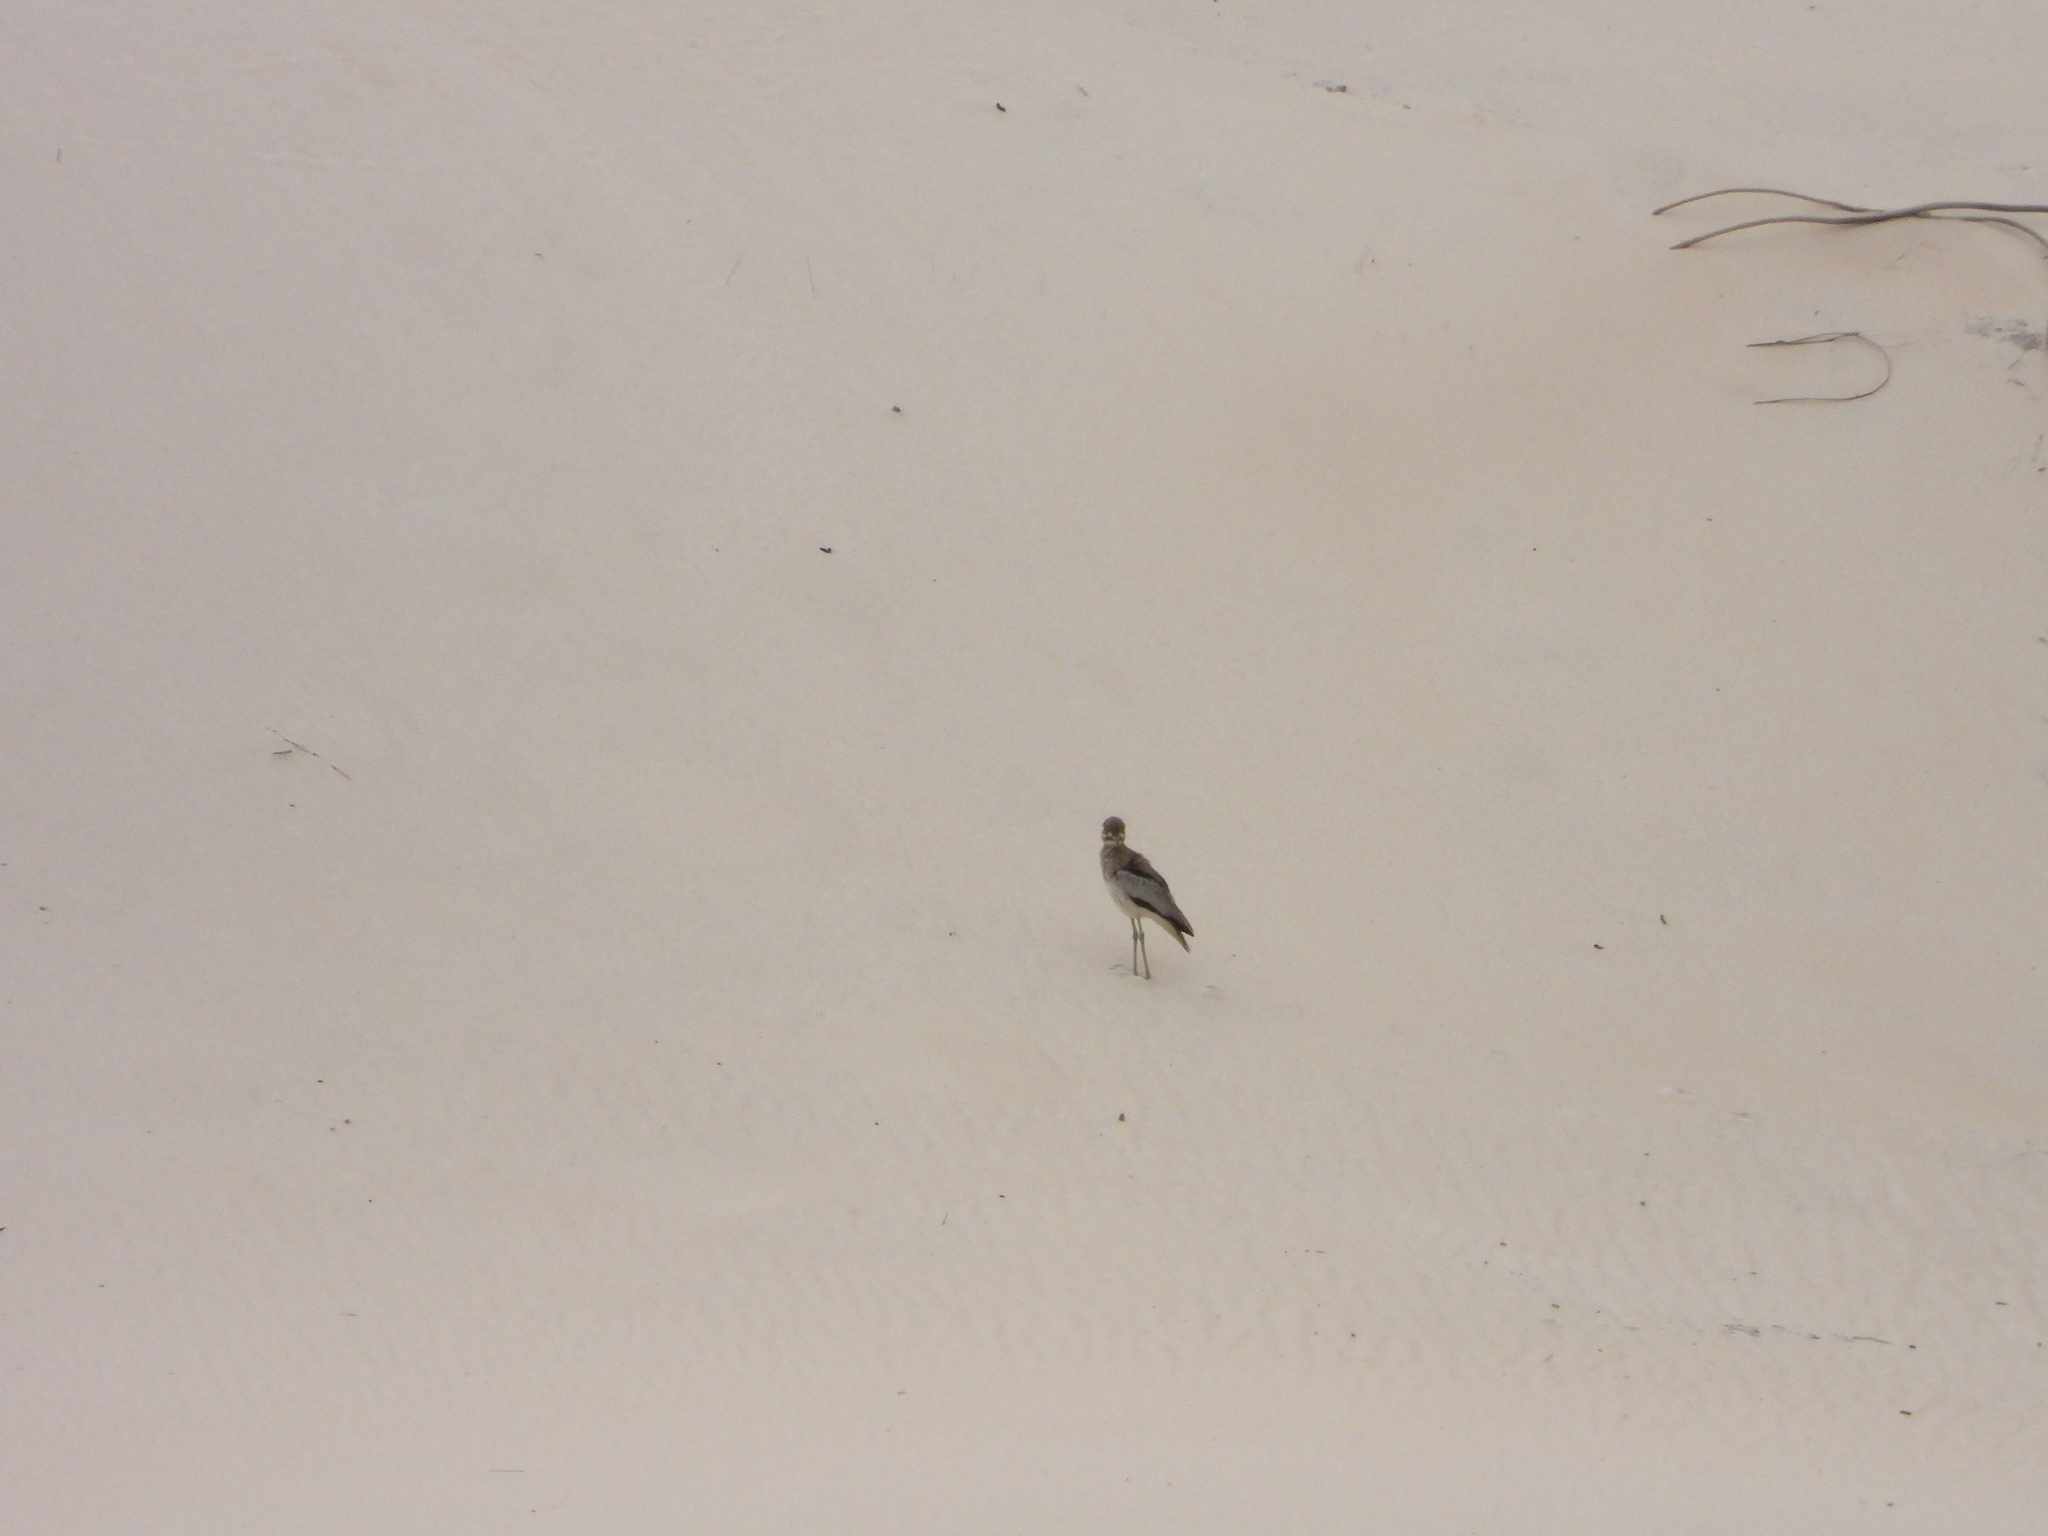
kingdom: Animalia
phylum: Chordata
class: Aves
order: Charadriiformes
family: Burhinidae
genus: Burhinus
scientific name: Burhinus vermiculatus
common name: Water thick-knee
